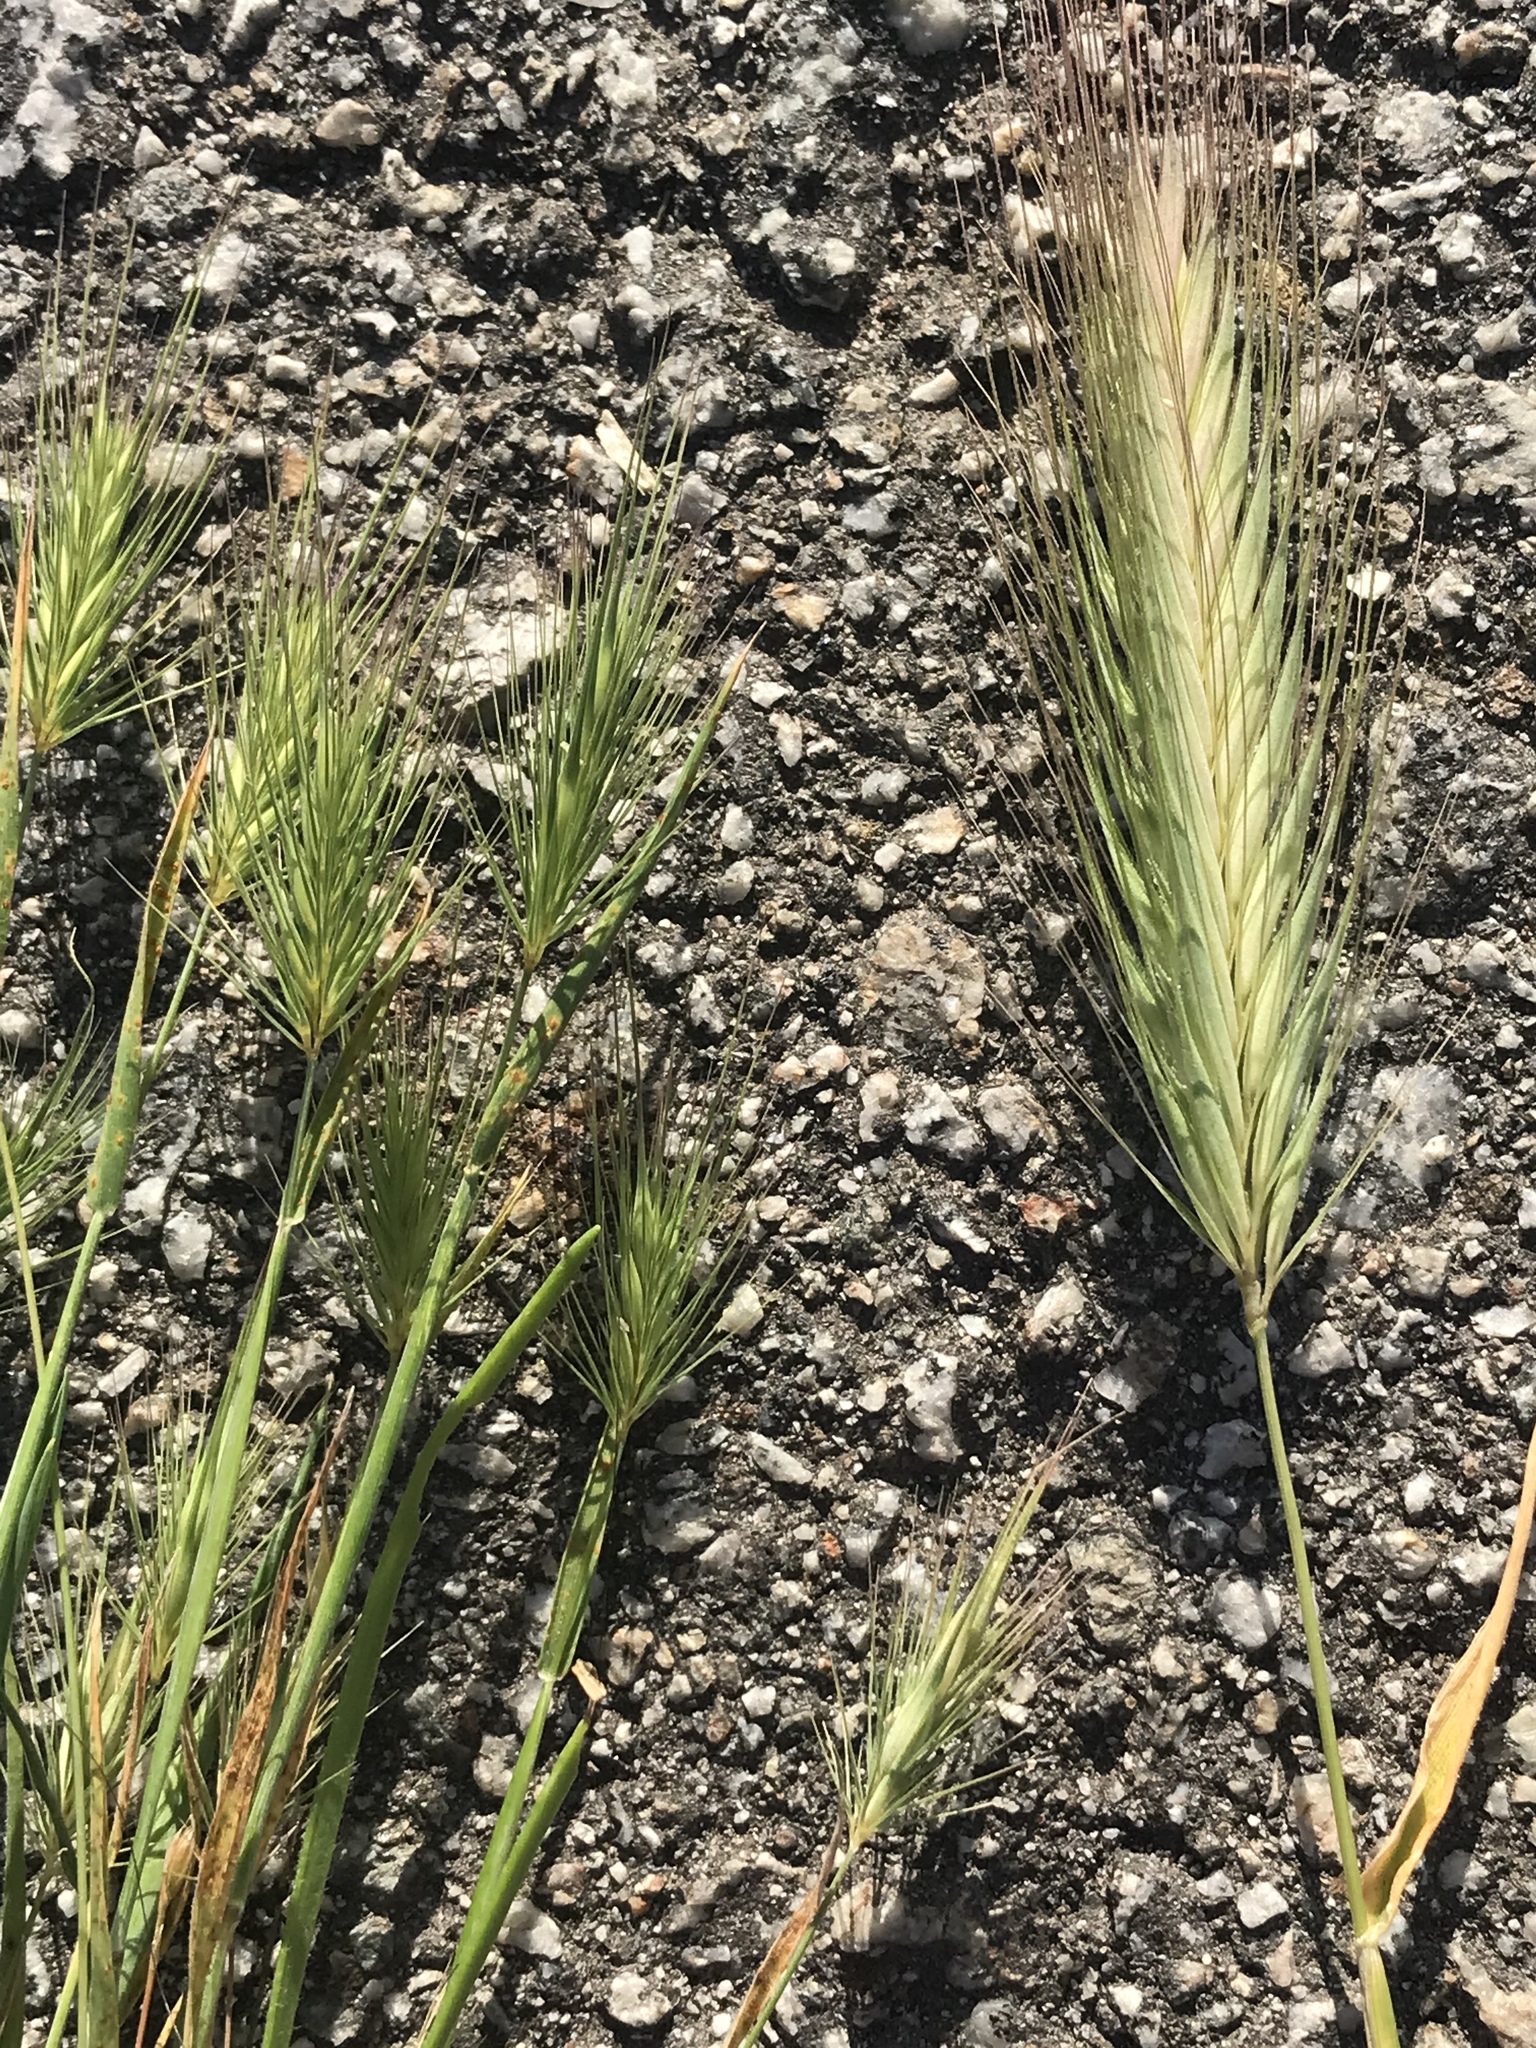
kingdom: Plantae
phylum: Tracheophyta
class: Liliopsida
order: Poales
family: Poaceae
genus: Hordeum
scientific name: Hordeum marinum
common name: Sea barley
